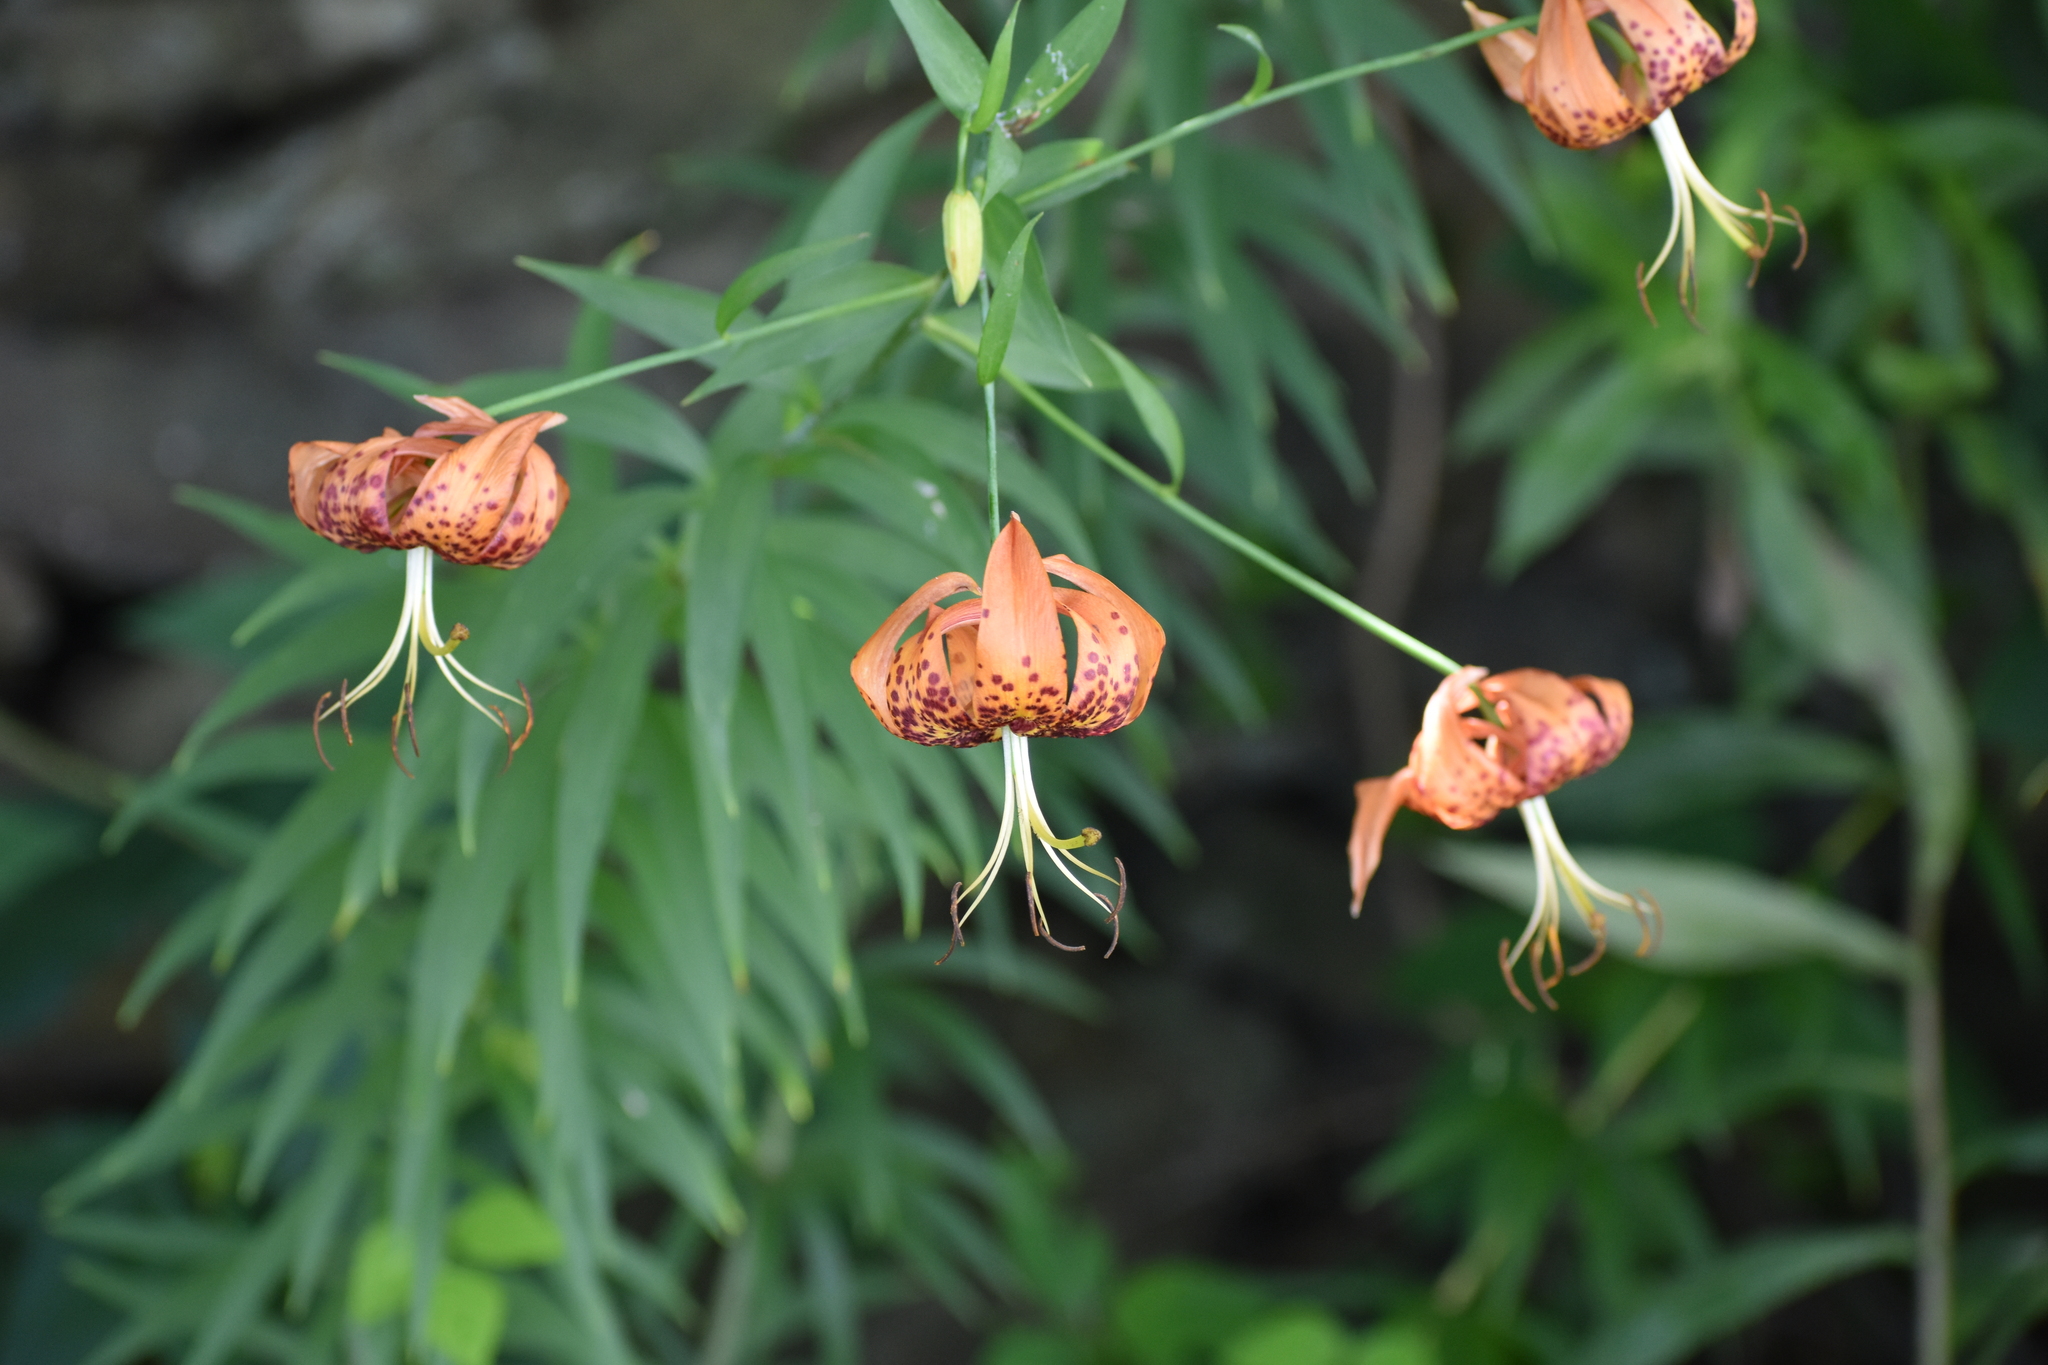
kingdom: Plantae
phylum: Tracheophyta
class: Liliopsida
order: Liliales
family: Liliaceae
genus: Lilium
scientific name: Lilium superbum
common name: American turk's-cap lily
